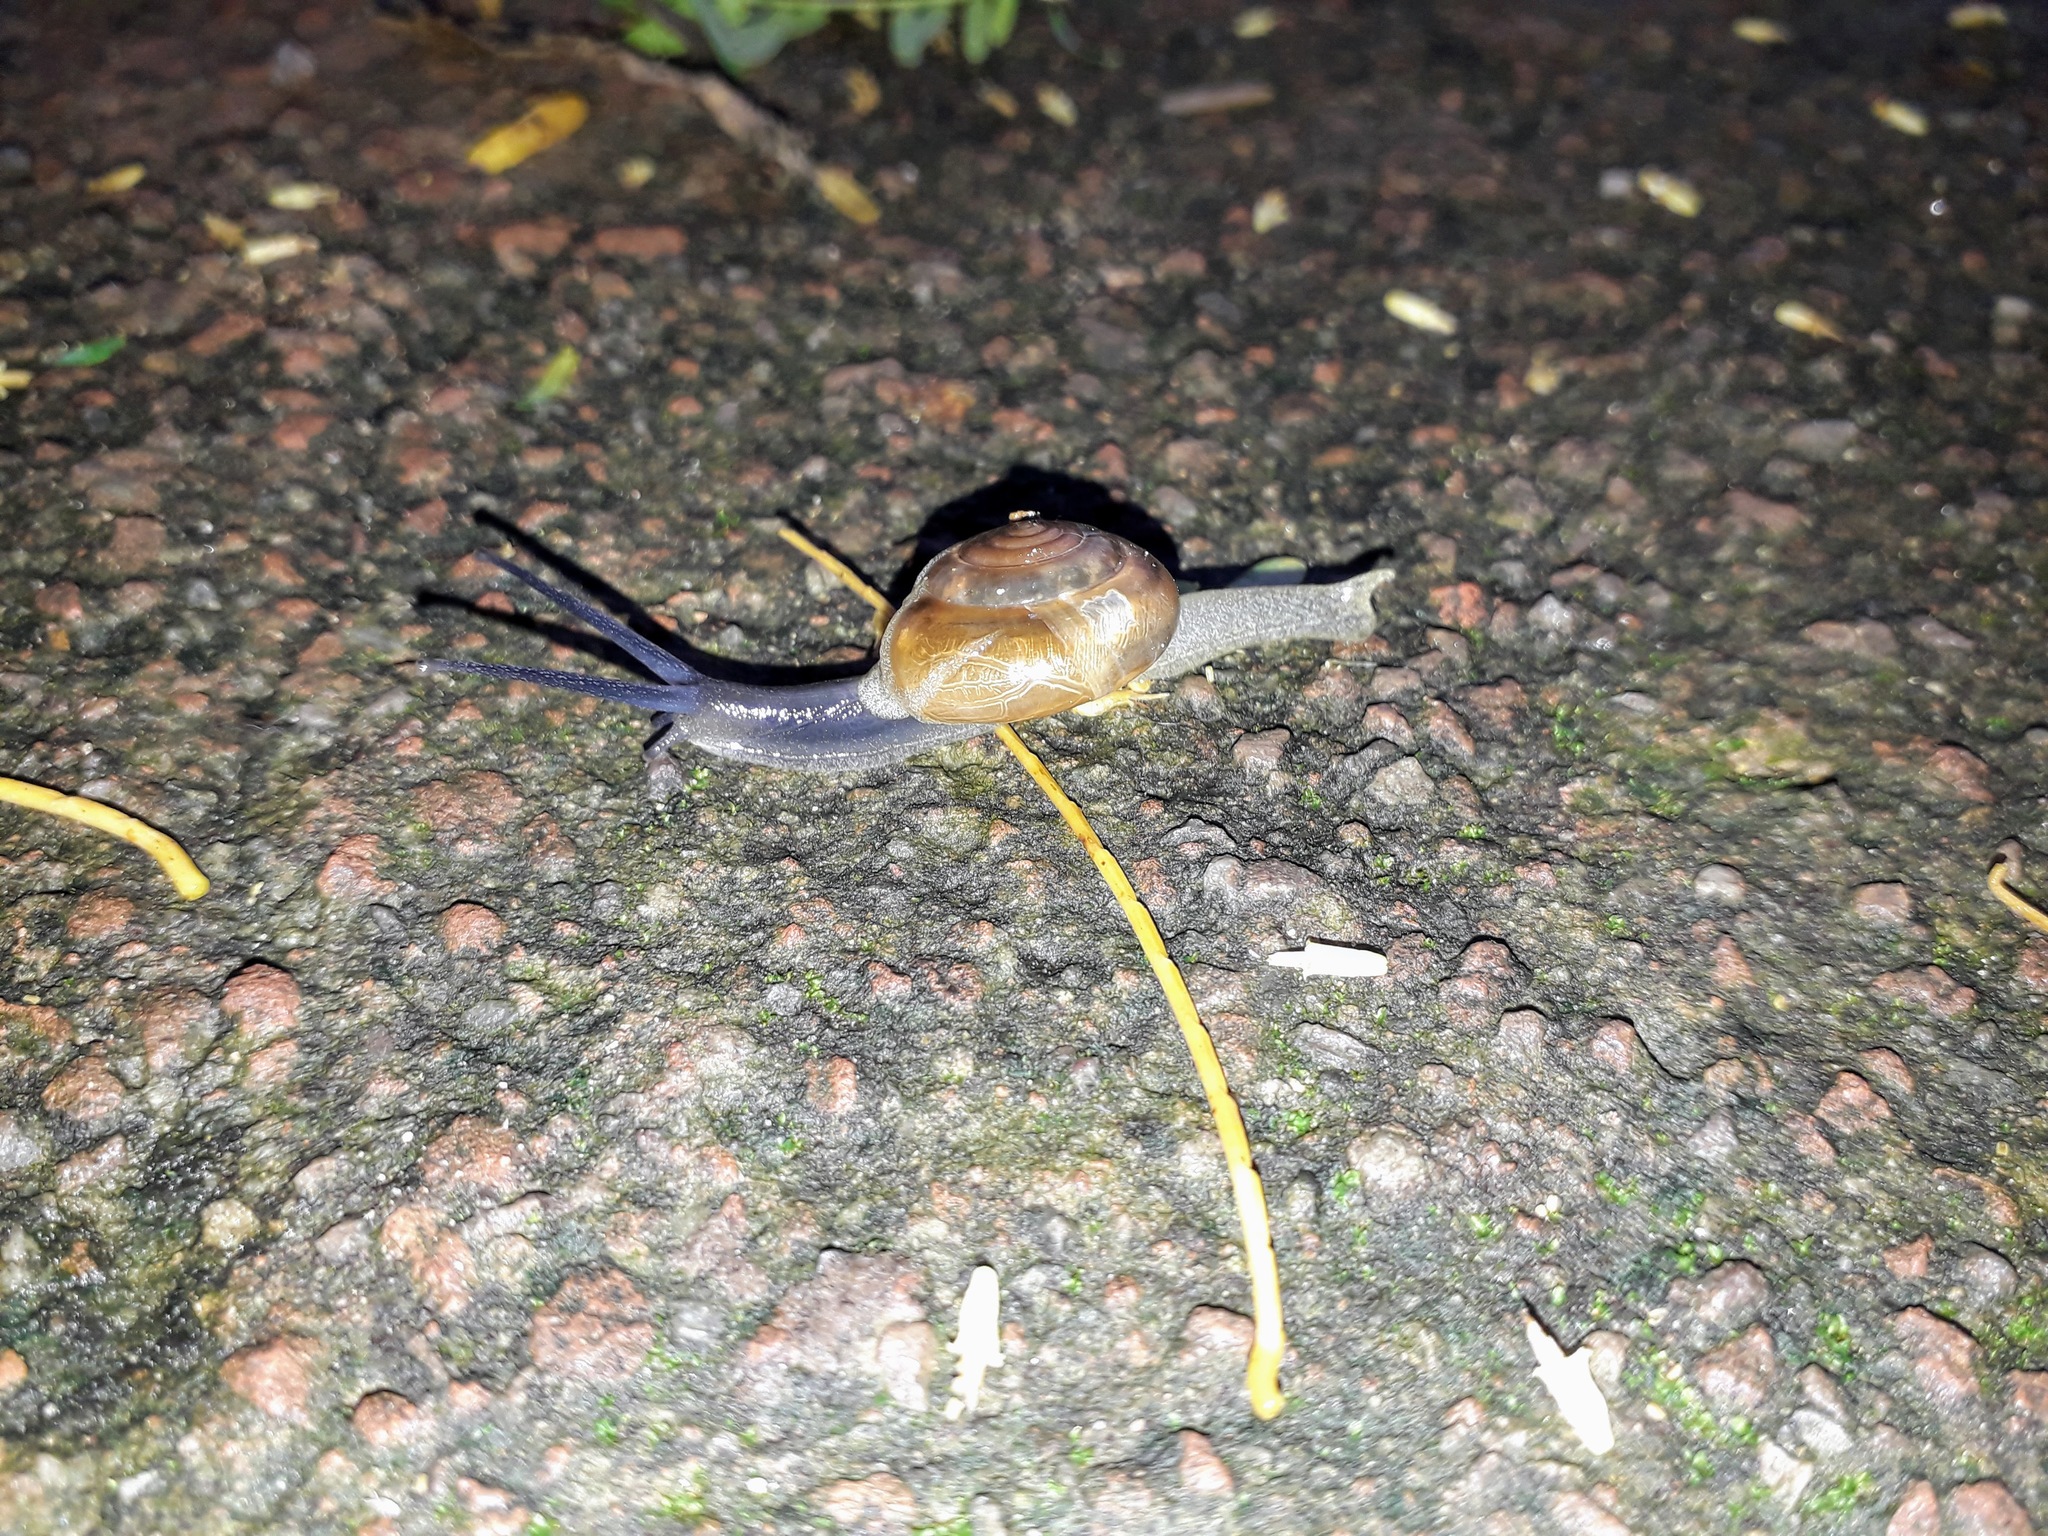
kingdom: Animalia
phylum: Mollusca
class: Gastropoda
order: Stylommatophora
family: Ariophantidae
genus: Macrochlamys
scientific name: Macrochlamys indica
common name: Horntail snail
